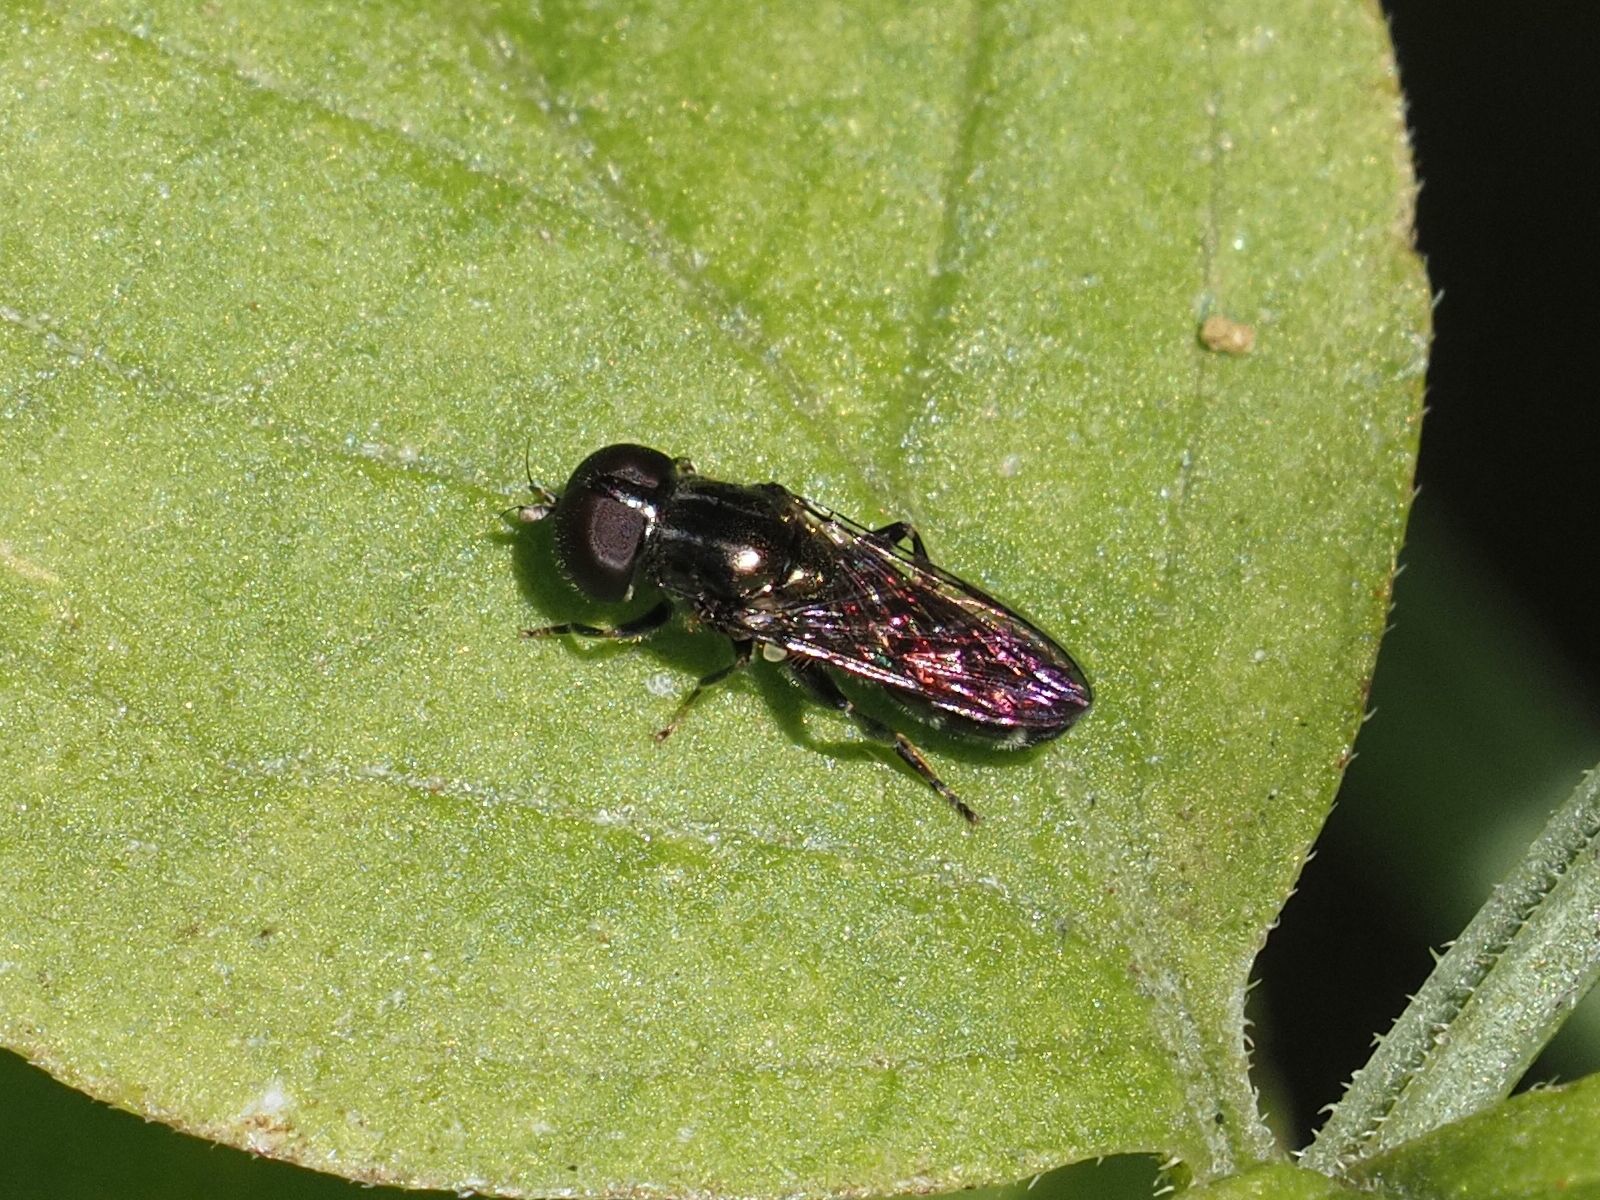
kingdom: Animalia
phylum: Arthropoda
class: Insecta
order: Diptera
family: Syrphidae
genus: Eumerus
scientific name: Eumerus ornatus
